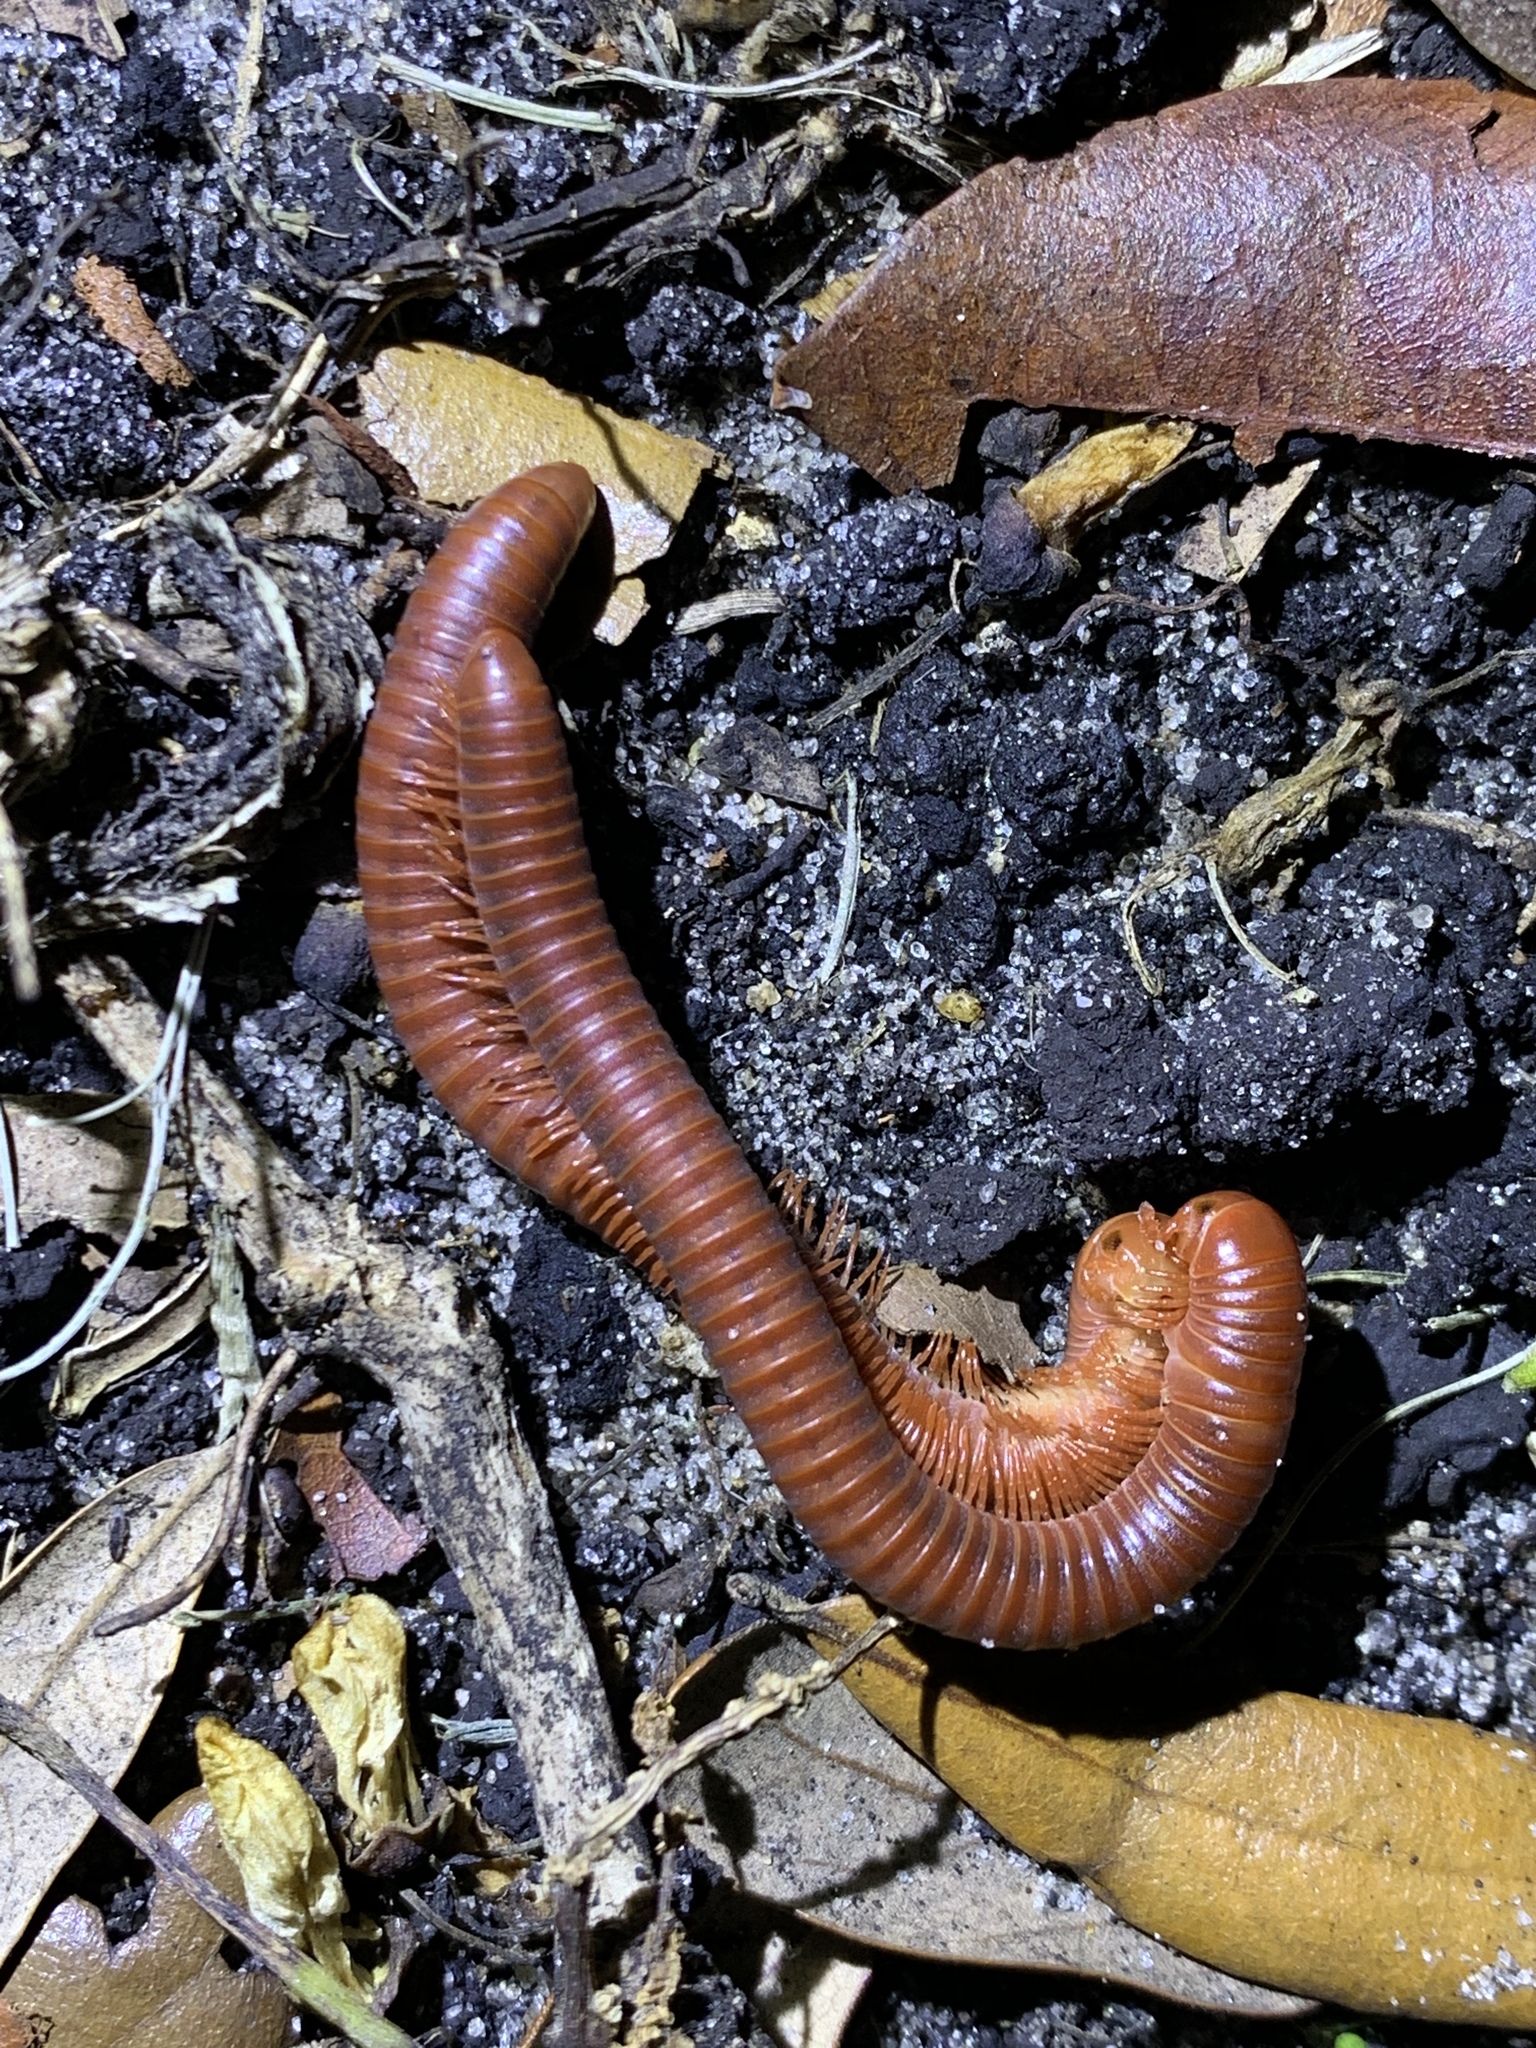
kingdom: Animalia
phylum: Arthropoda
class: Diplopoda
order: Spirobolida
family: Pachybolidae
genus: Trigoniulus
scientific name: Trigoniulus corallinus
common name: Millipede
